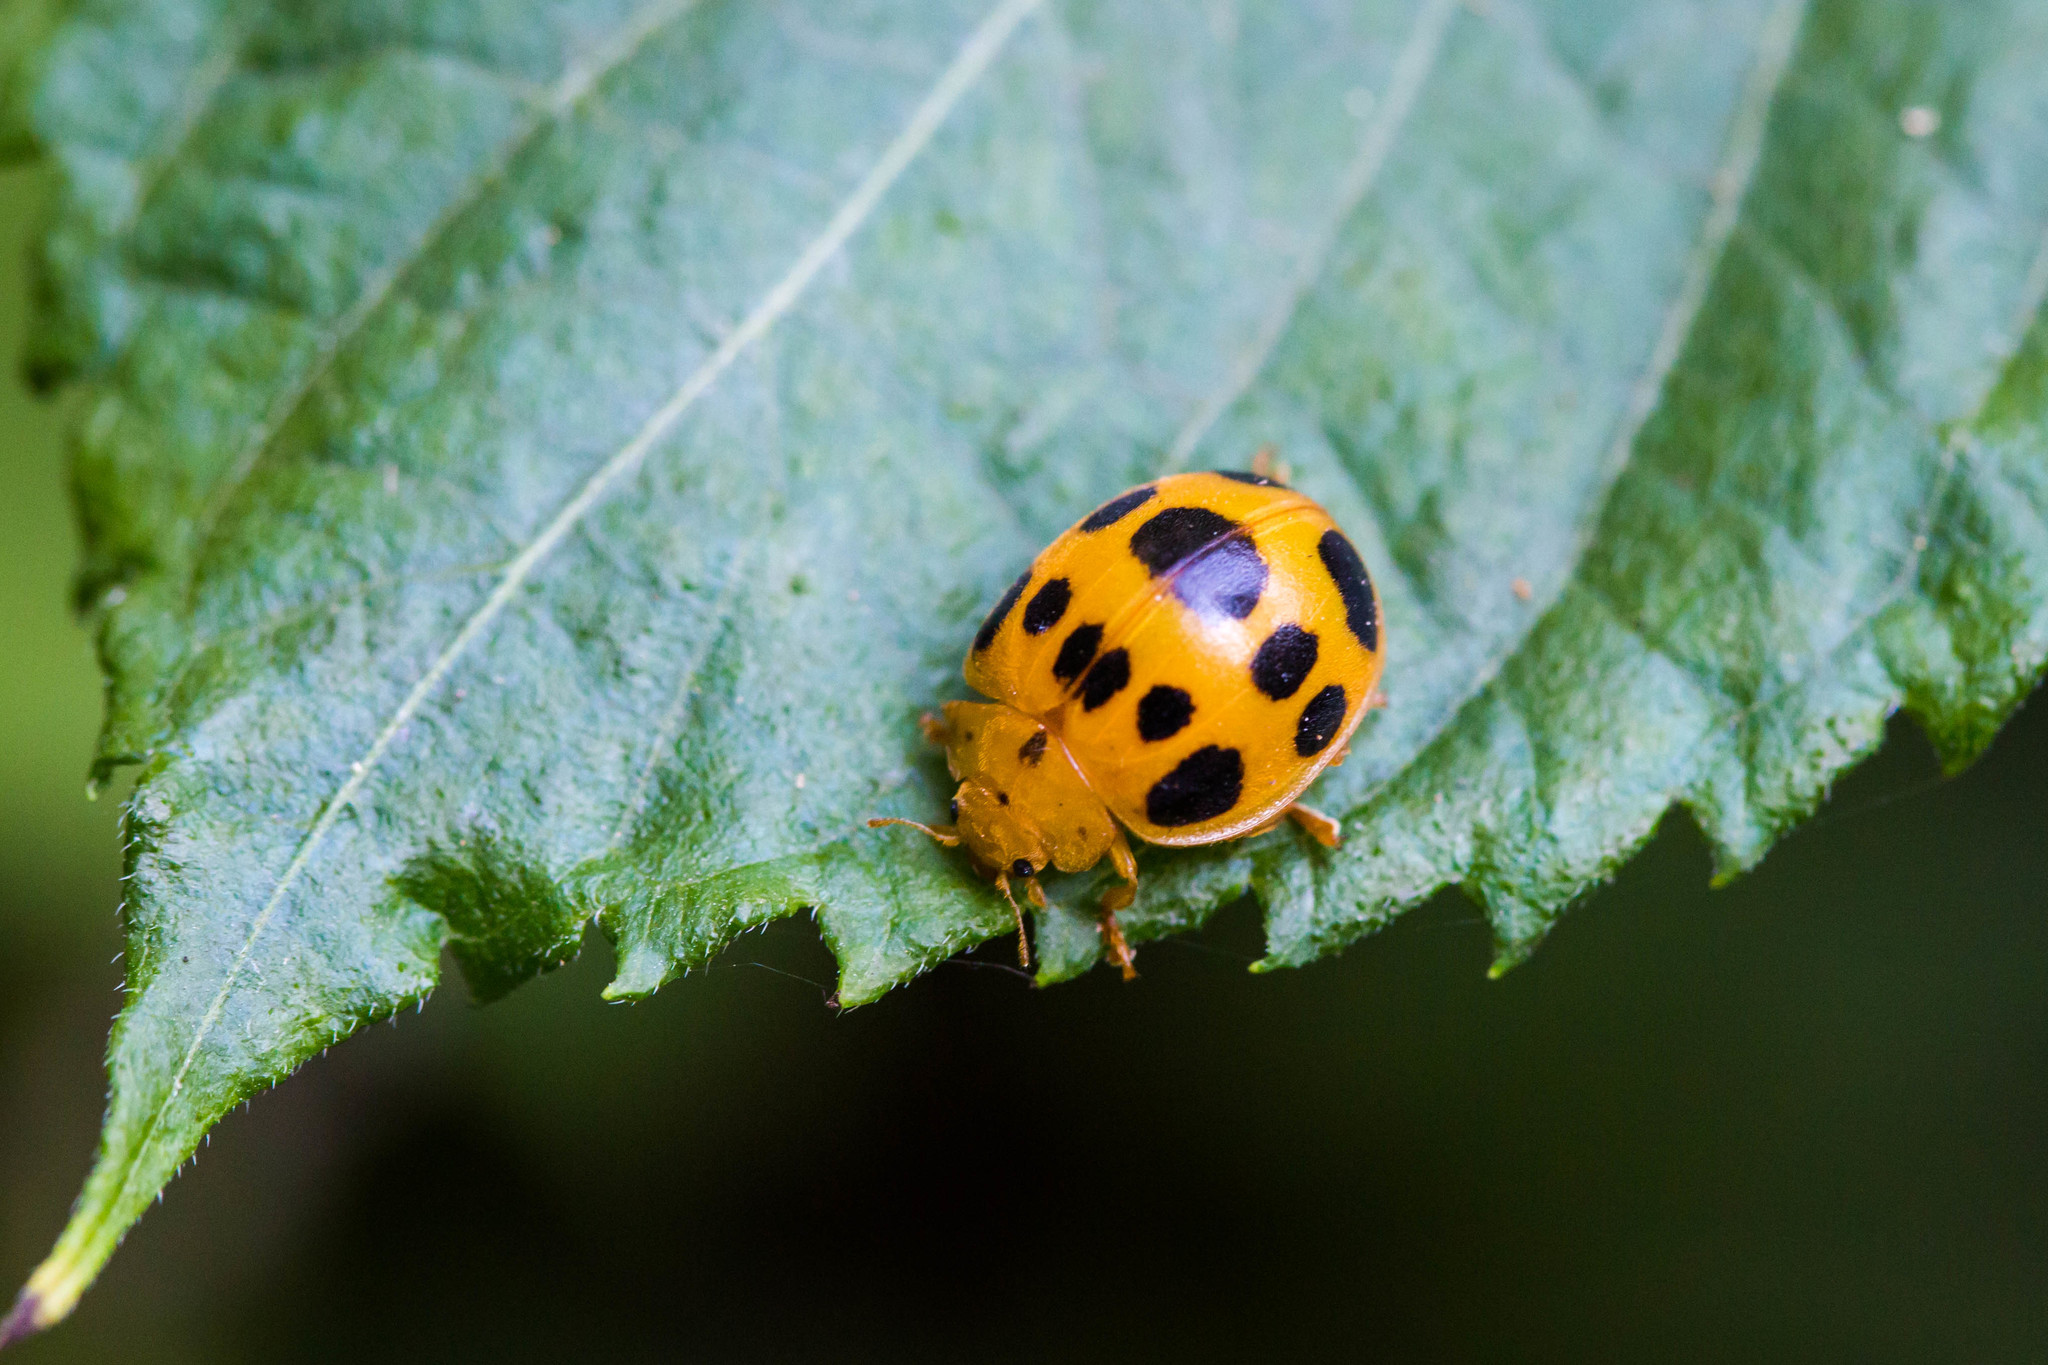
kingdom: Animalia
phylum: Arthropoda
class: Insecta
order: Coleoptera
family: Coccinellidae
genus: Epilachna
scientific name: Epilachna borealis
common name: Squash beetle
